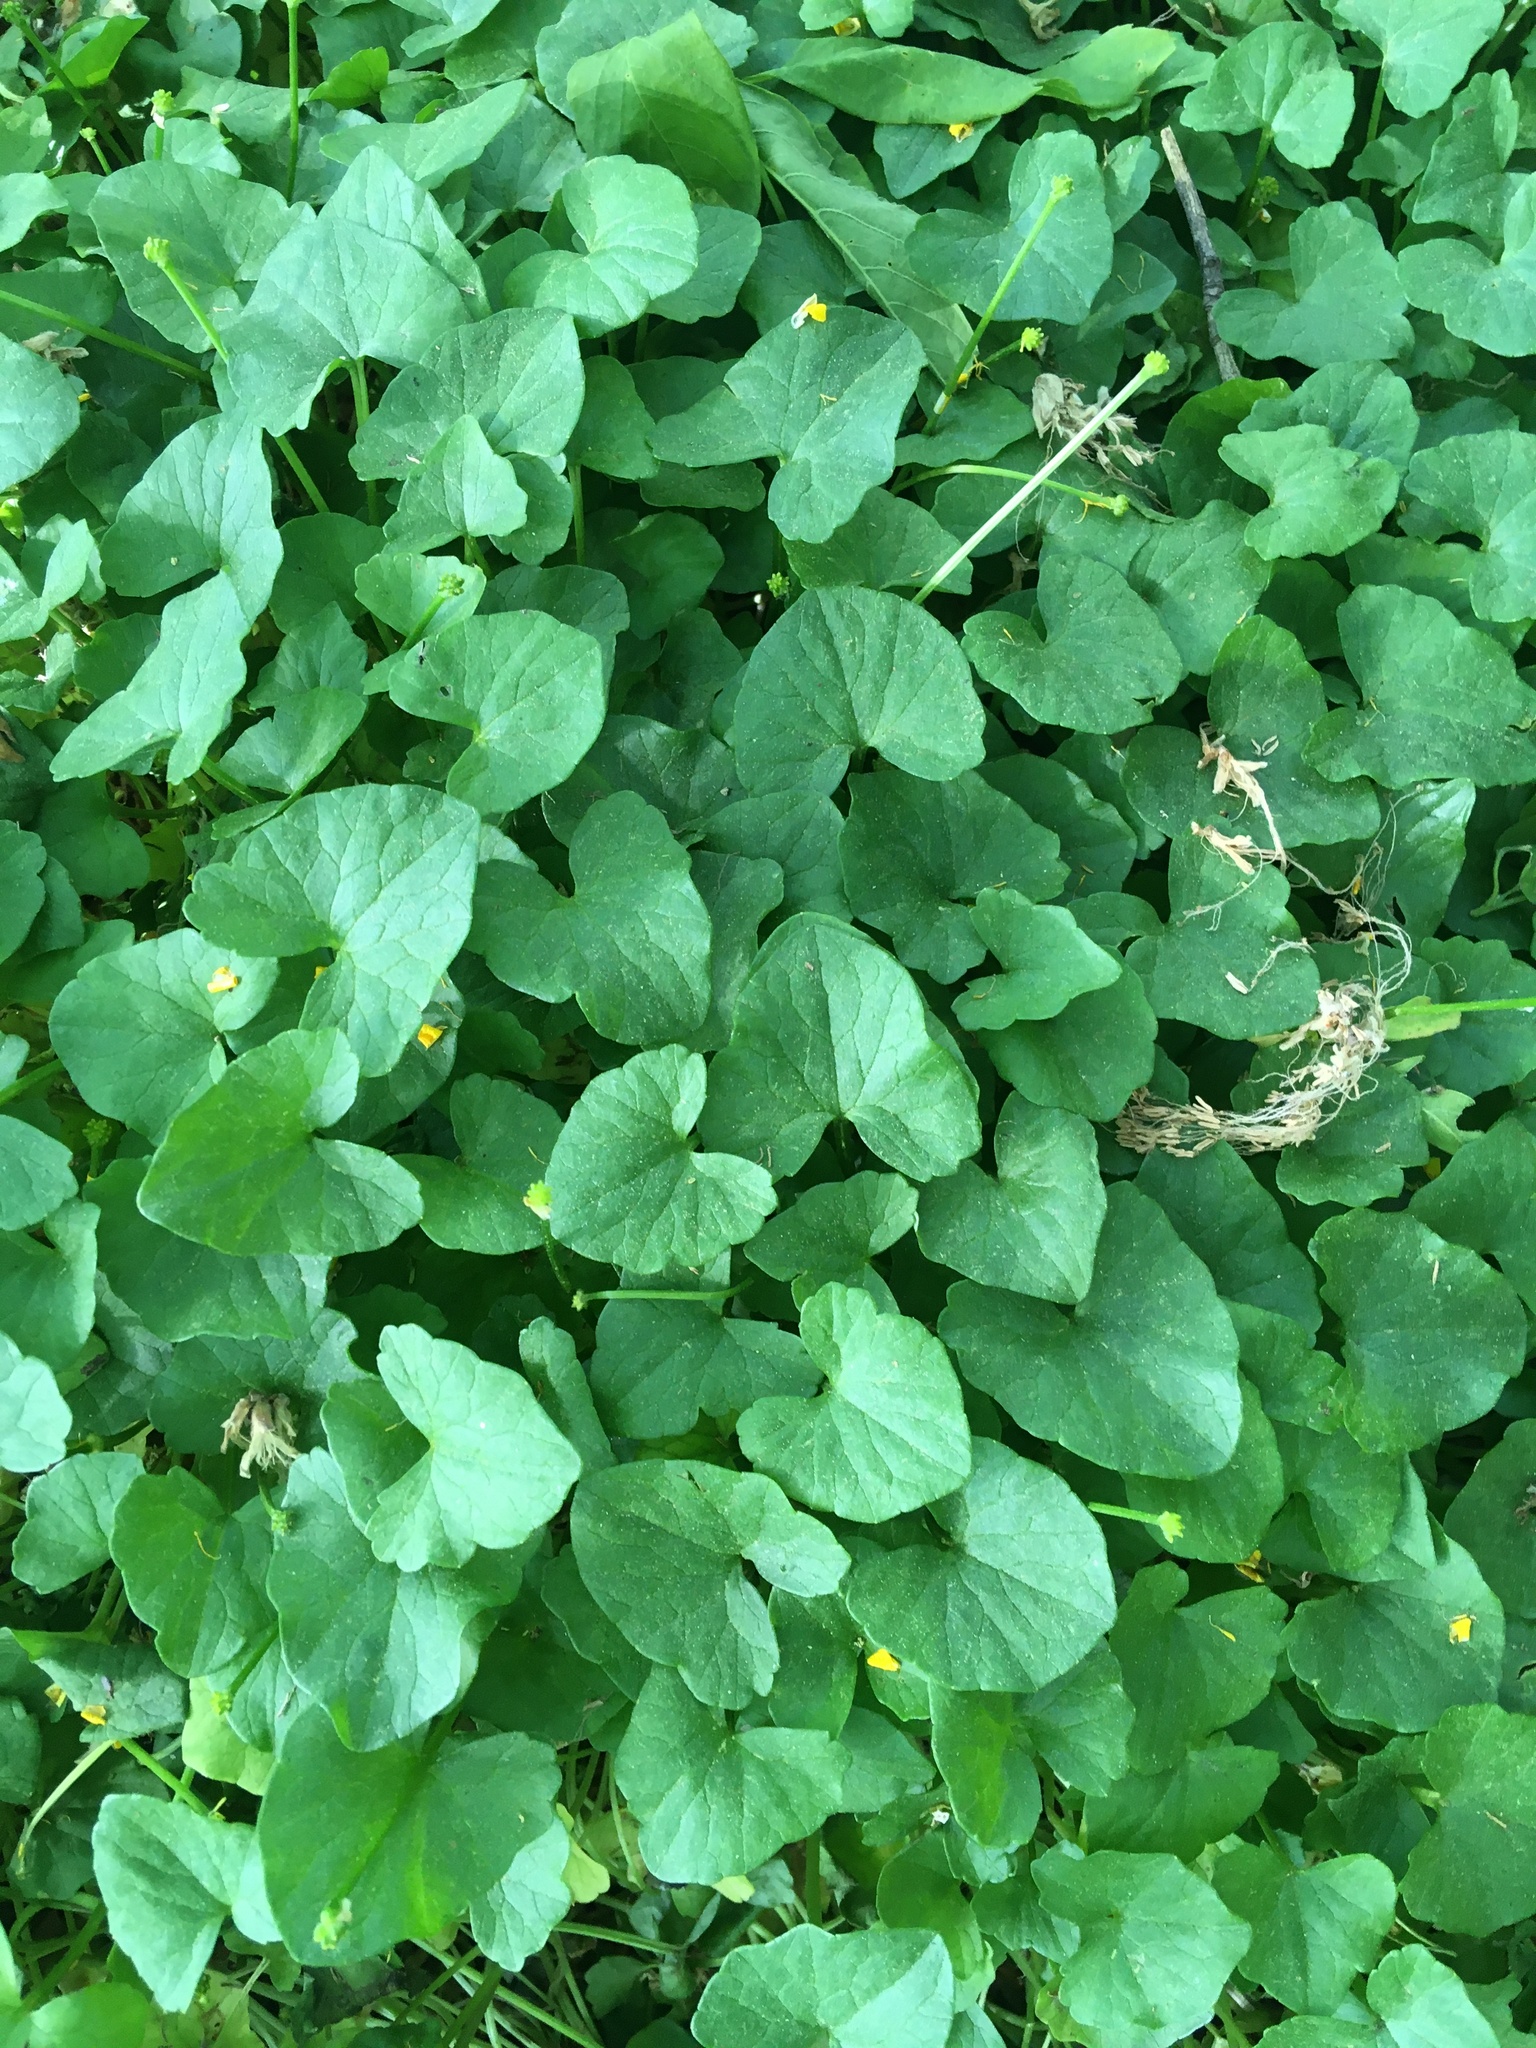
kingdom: Plantae
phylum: Tracheophyta
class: Magnoliopsida
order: Ranunculales
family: Ranunculaceae
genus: Ficaria
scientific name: Ficaria verna
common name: Lesser celandine
